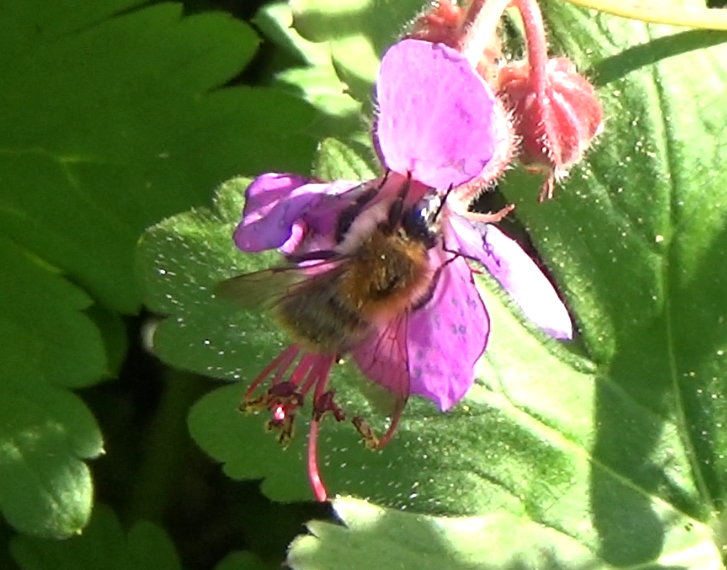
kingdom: Animalia
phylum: Arthropoda
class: Insecta
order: Hymenoptera
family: Apidae
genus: Bombus
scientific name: Bombus pascuorum
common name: Common carder bee
